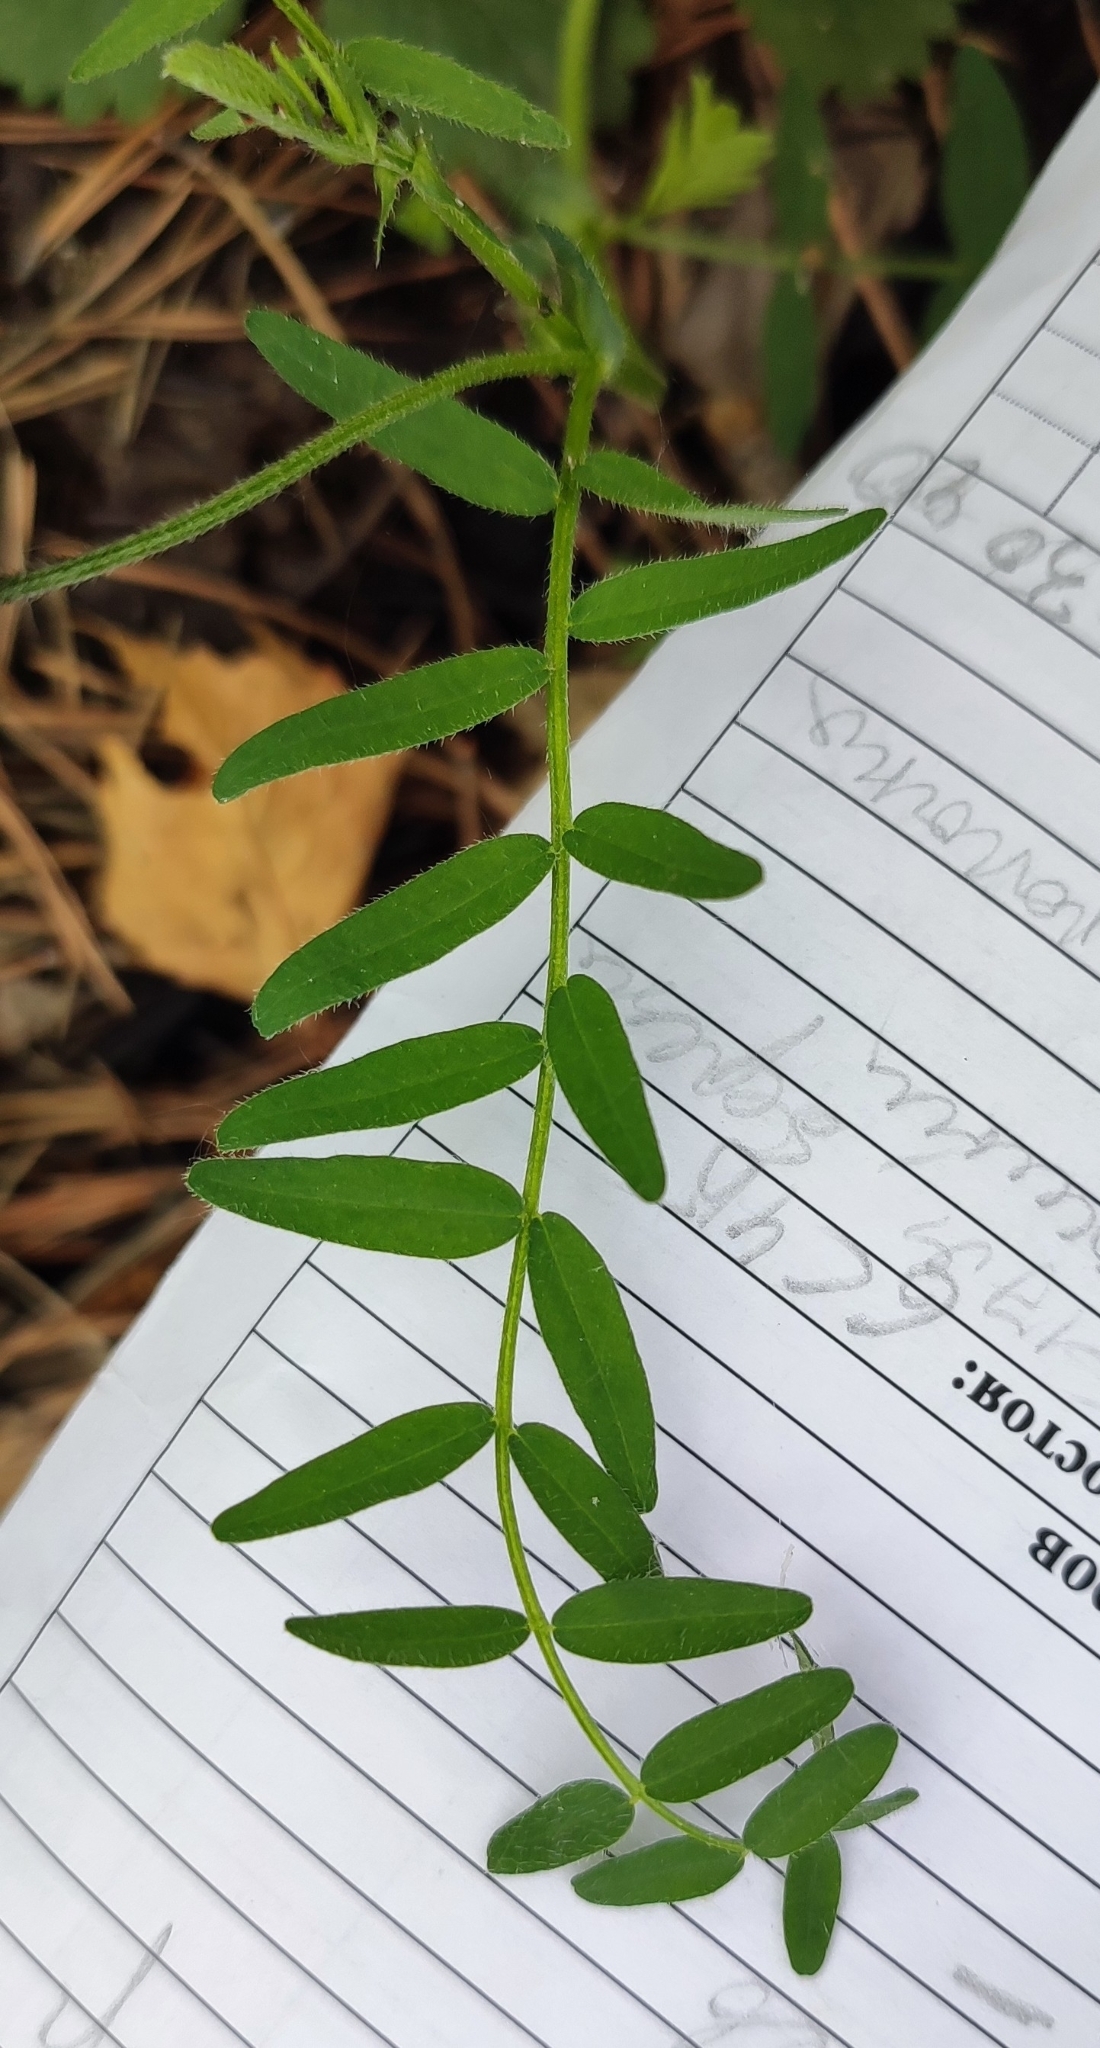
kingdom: Plantae
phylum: Tracheophyta
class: Magnoliopsida
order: Fabales
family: Fabaceae
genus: Vicia
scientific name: Vicia cracca
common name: Bird vetch
